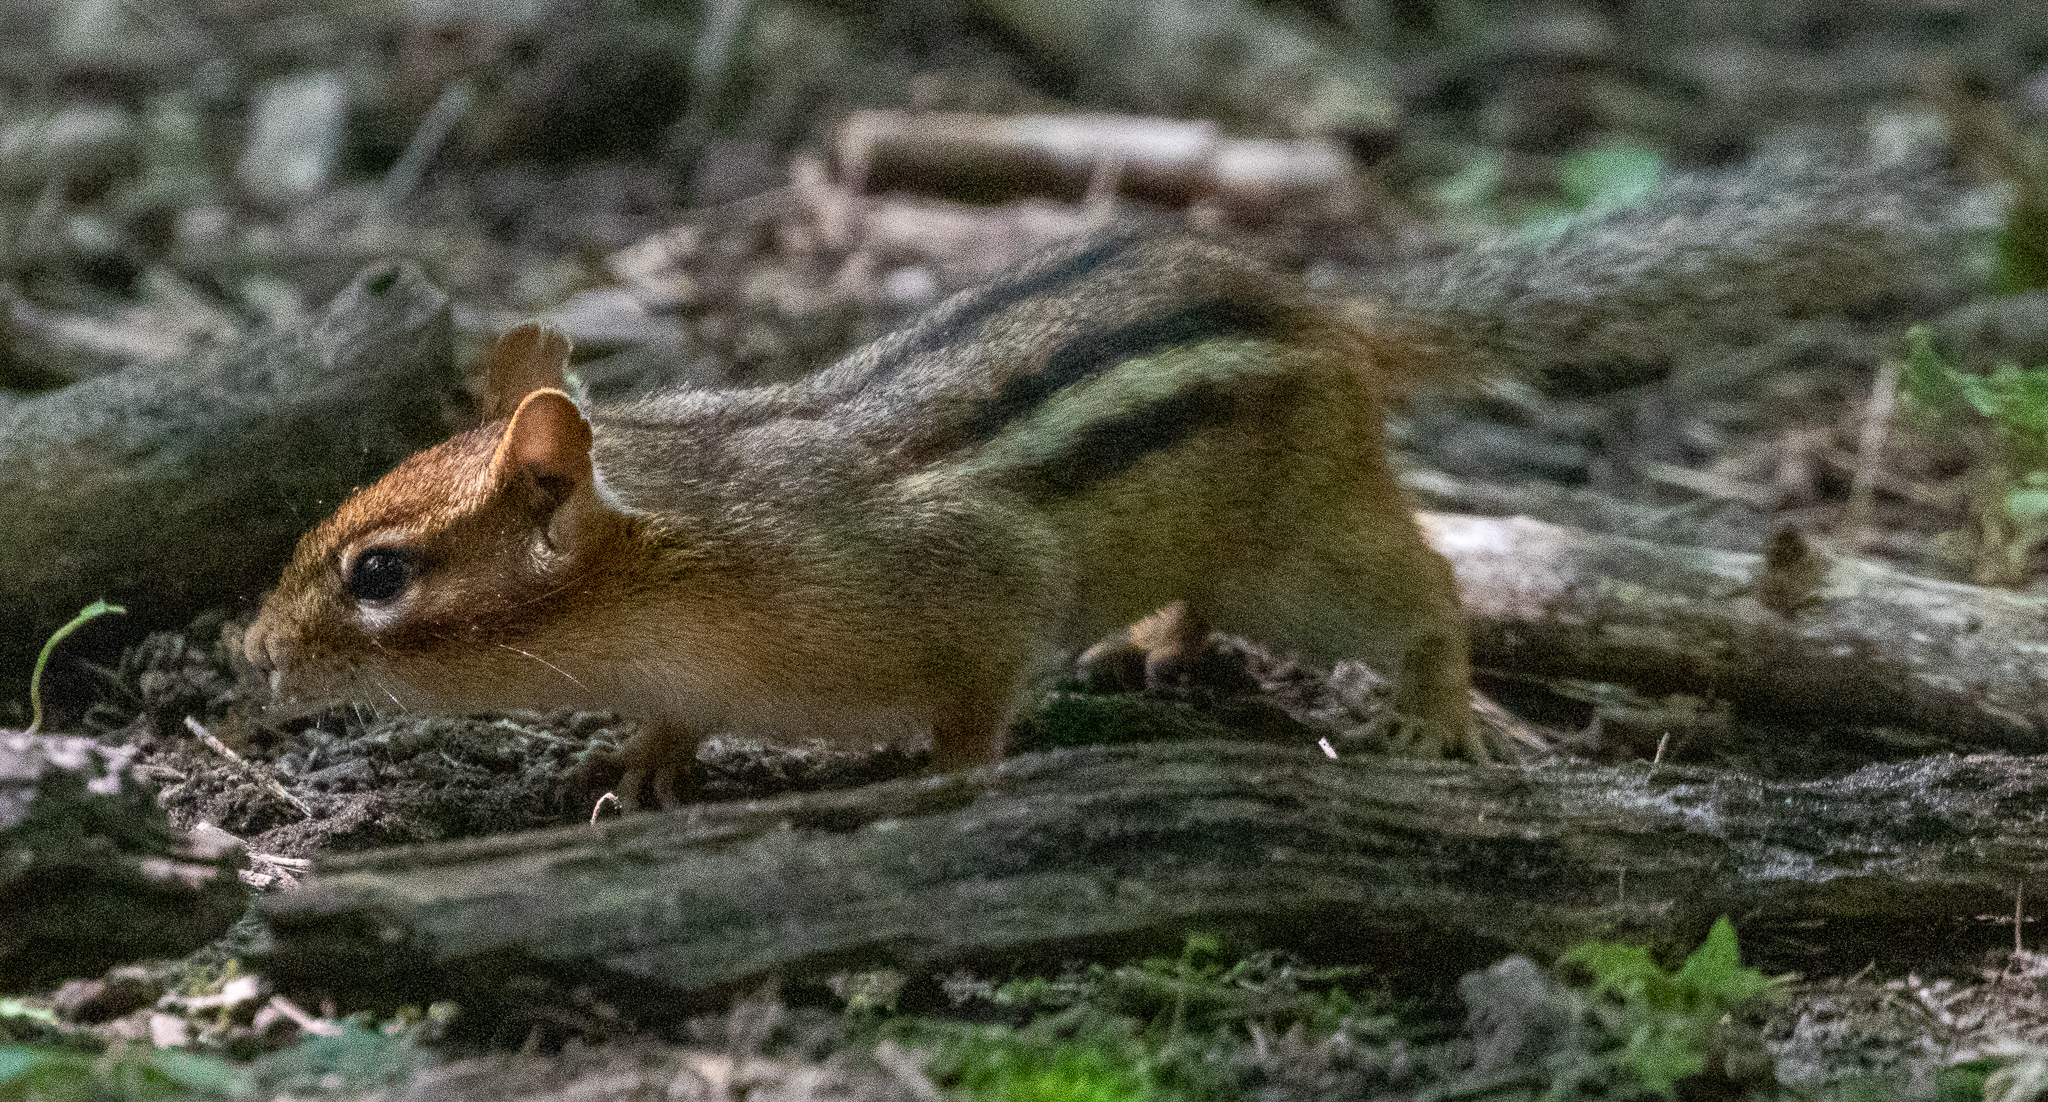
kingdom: Animalia
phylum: Chordata
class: Mammalia
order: Rodentia
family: Sciuridae
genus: Tamias
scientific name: Tamias striatus
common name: Eastern chipmunk
